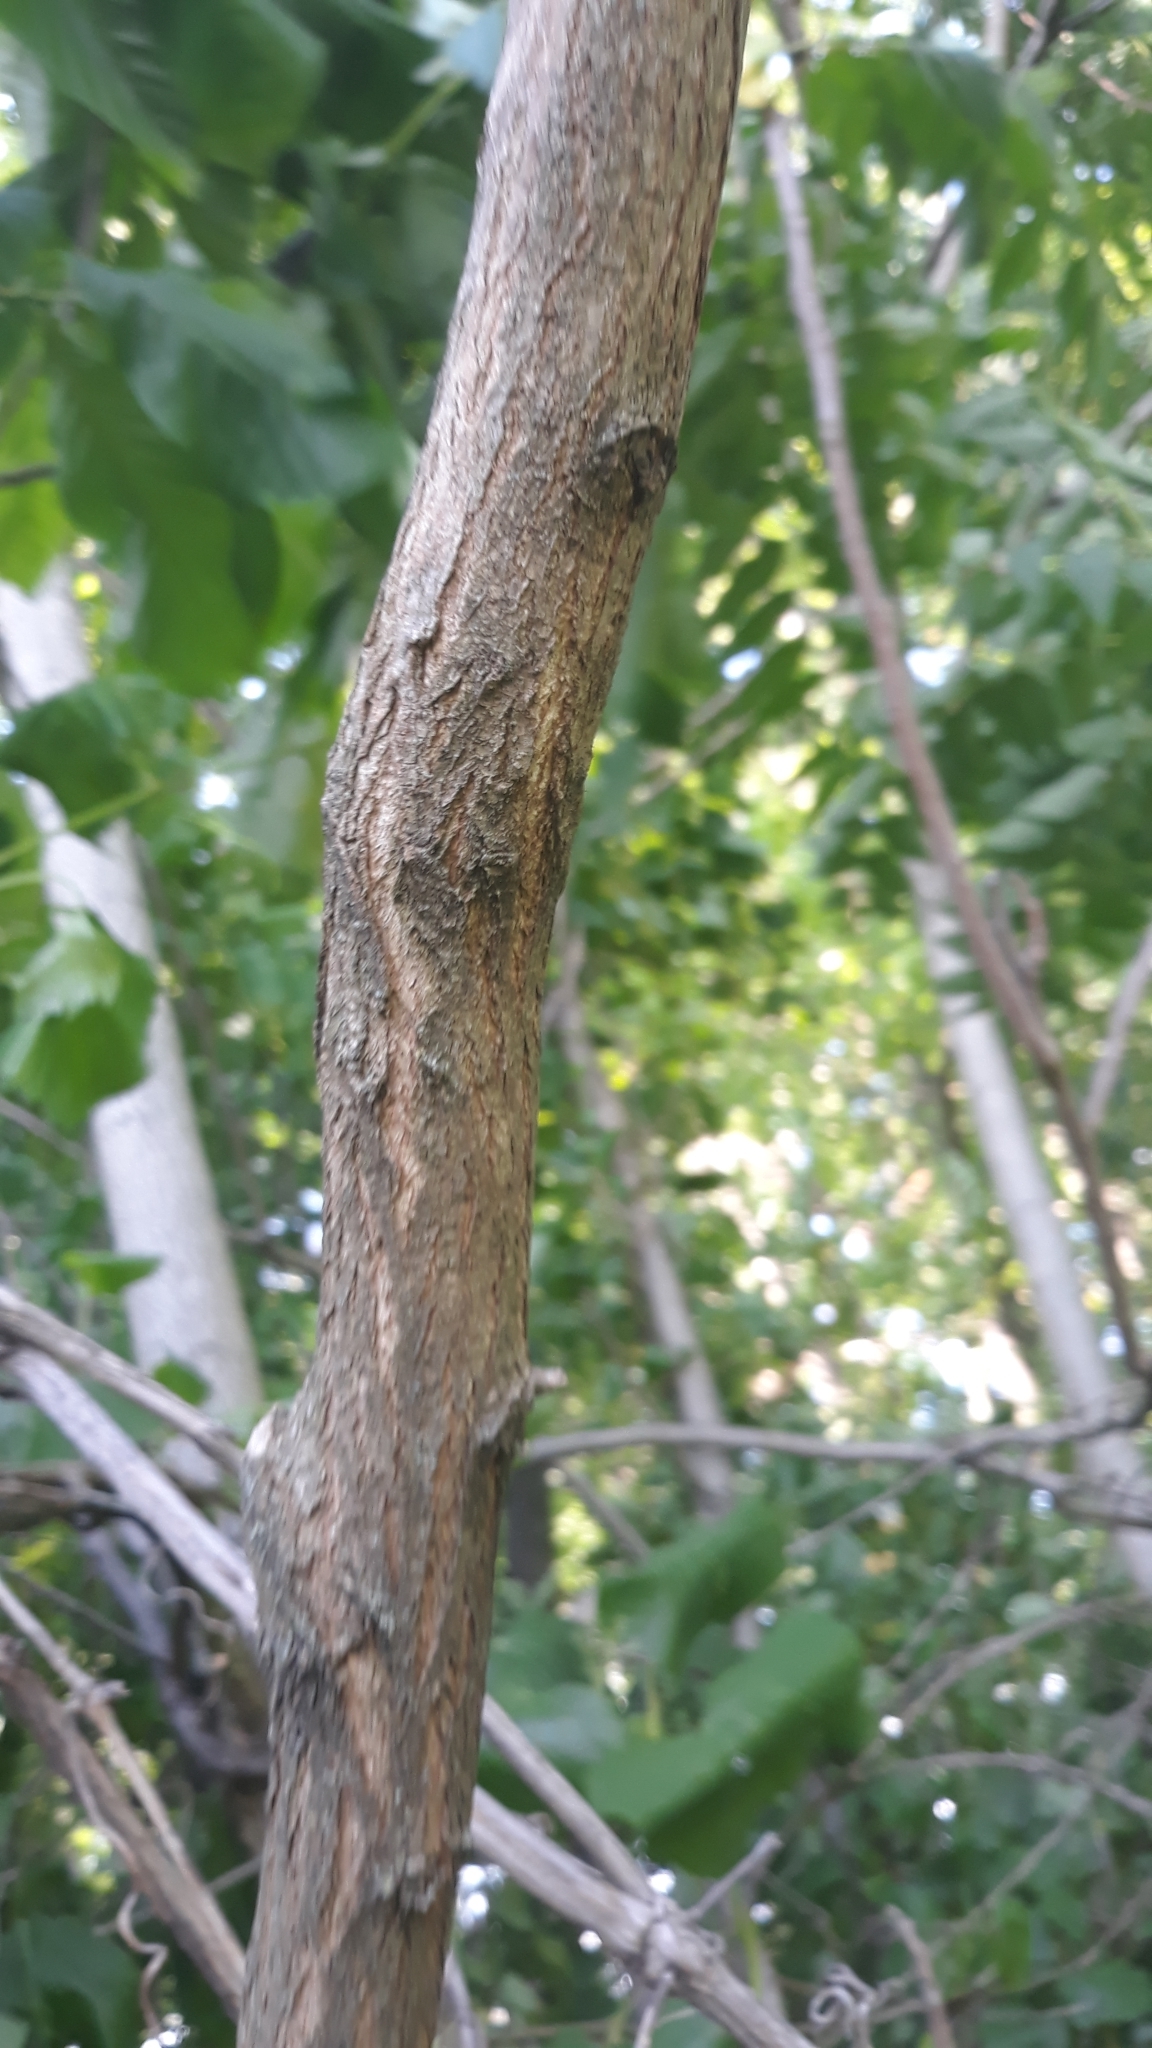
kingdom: Plantae
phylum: Tracheophyta
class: Magnoliopsida
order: Fabales
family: Fabaceae
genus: Robinia
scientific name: Robinia pseudoacacia
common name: Black locust
